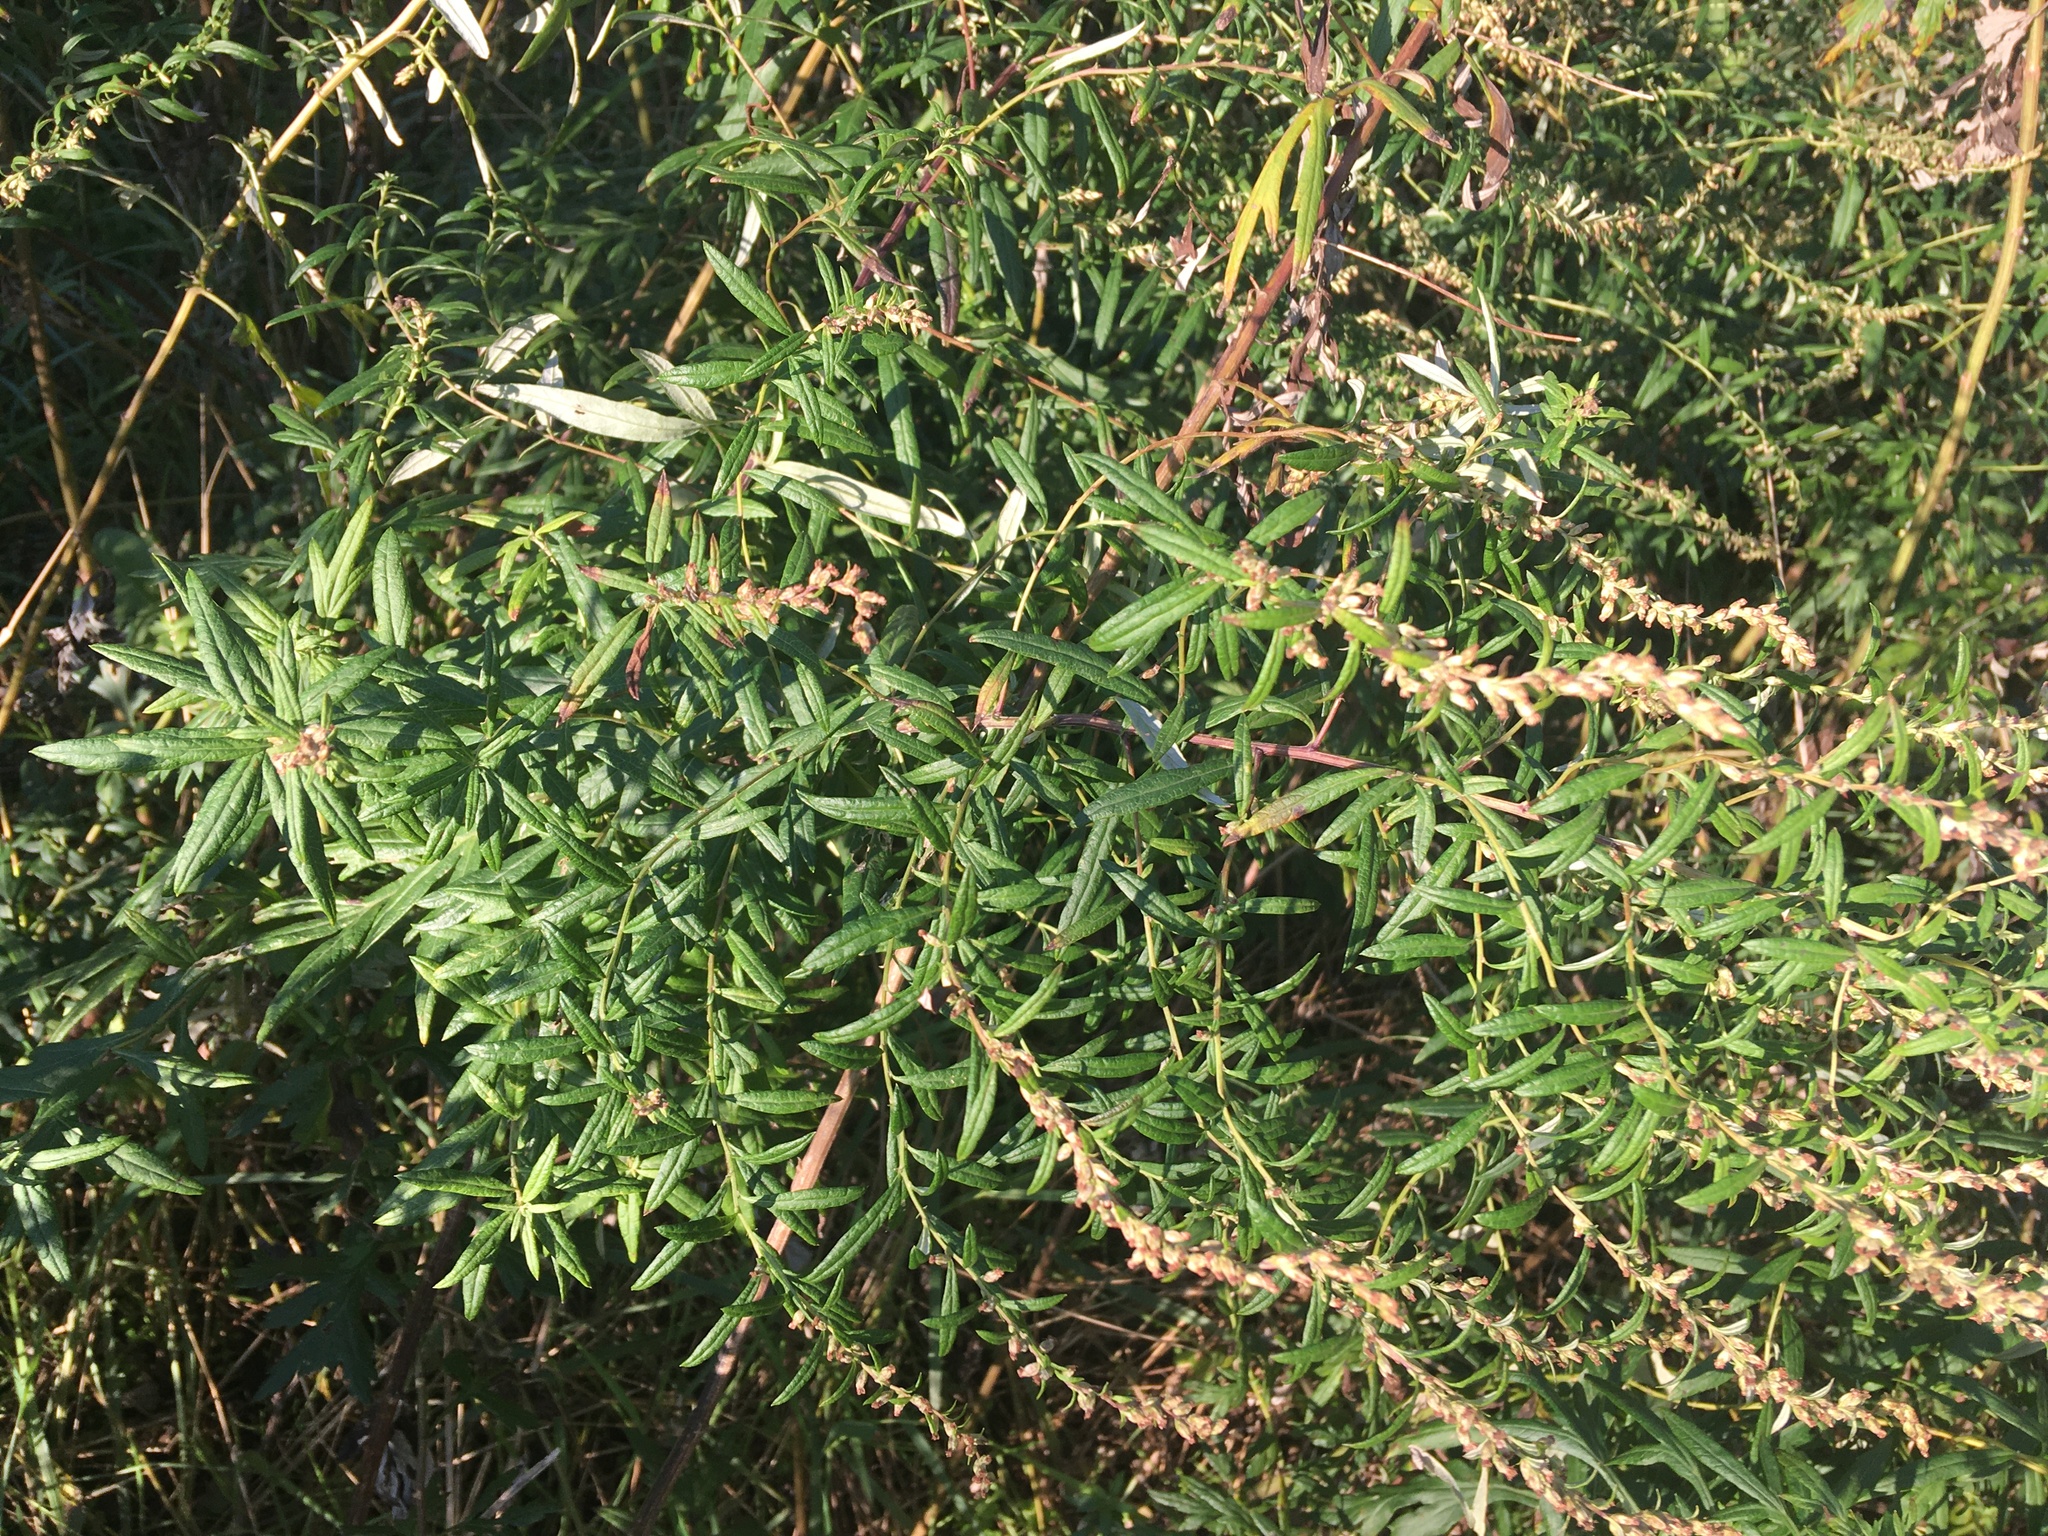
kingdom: Plantae
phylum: Tracheophyta
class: Magnoliopsida
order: Asterales
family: Asteraceae
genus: Artemisia
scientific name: Artemisia vulgaris
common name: Mugwort
